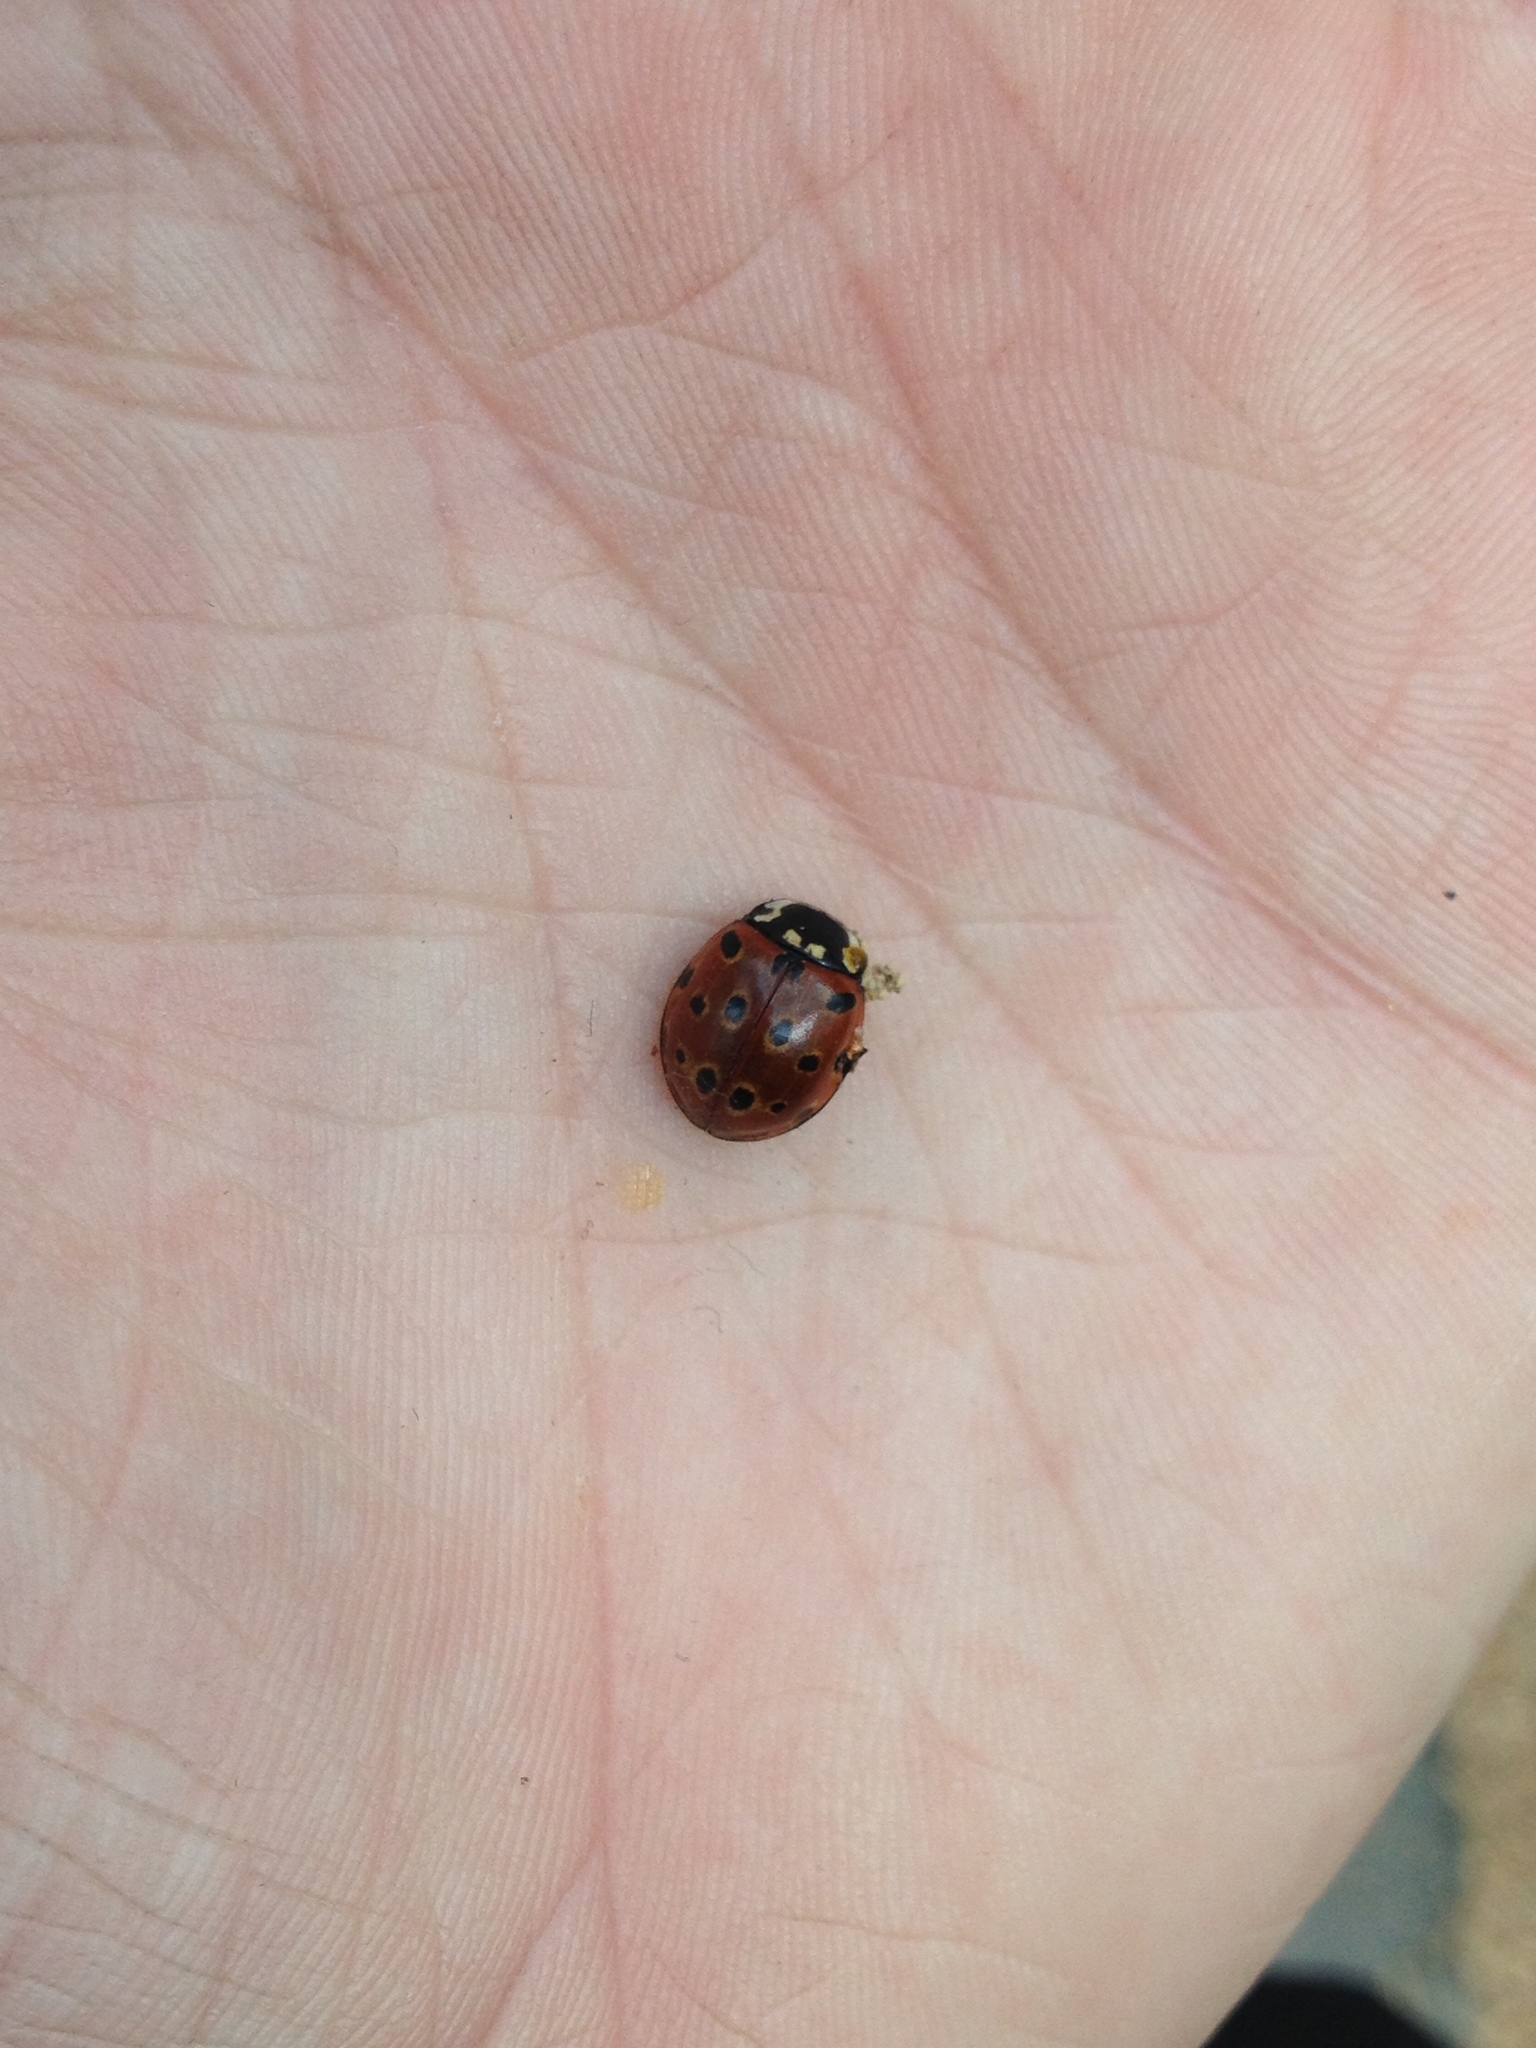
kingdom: Animalia
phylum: Arthropoda
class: Insecta
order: Coleoptera
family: Coccinellidae
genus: Anatis
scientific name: Anatis ocellata
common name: Eyed ladybird
